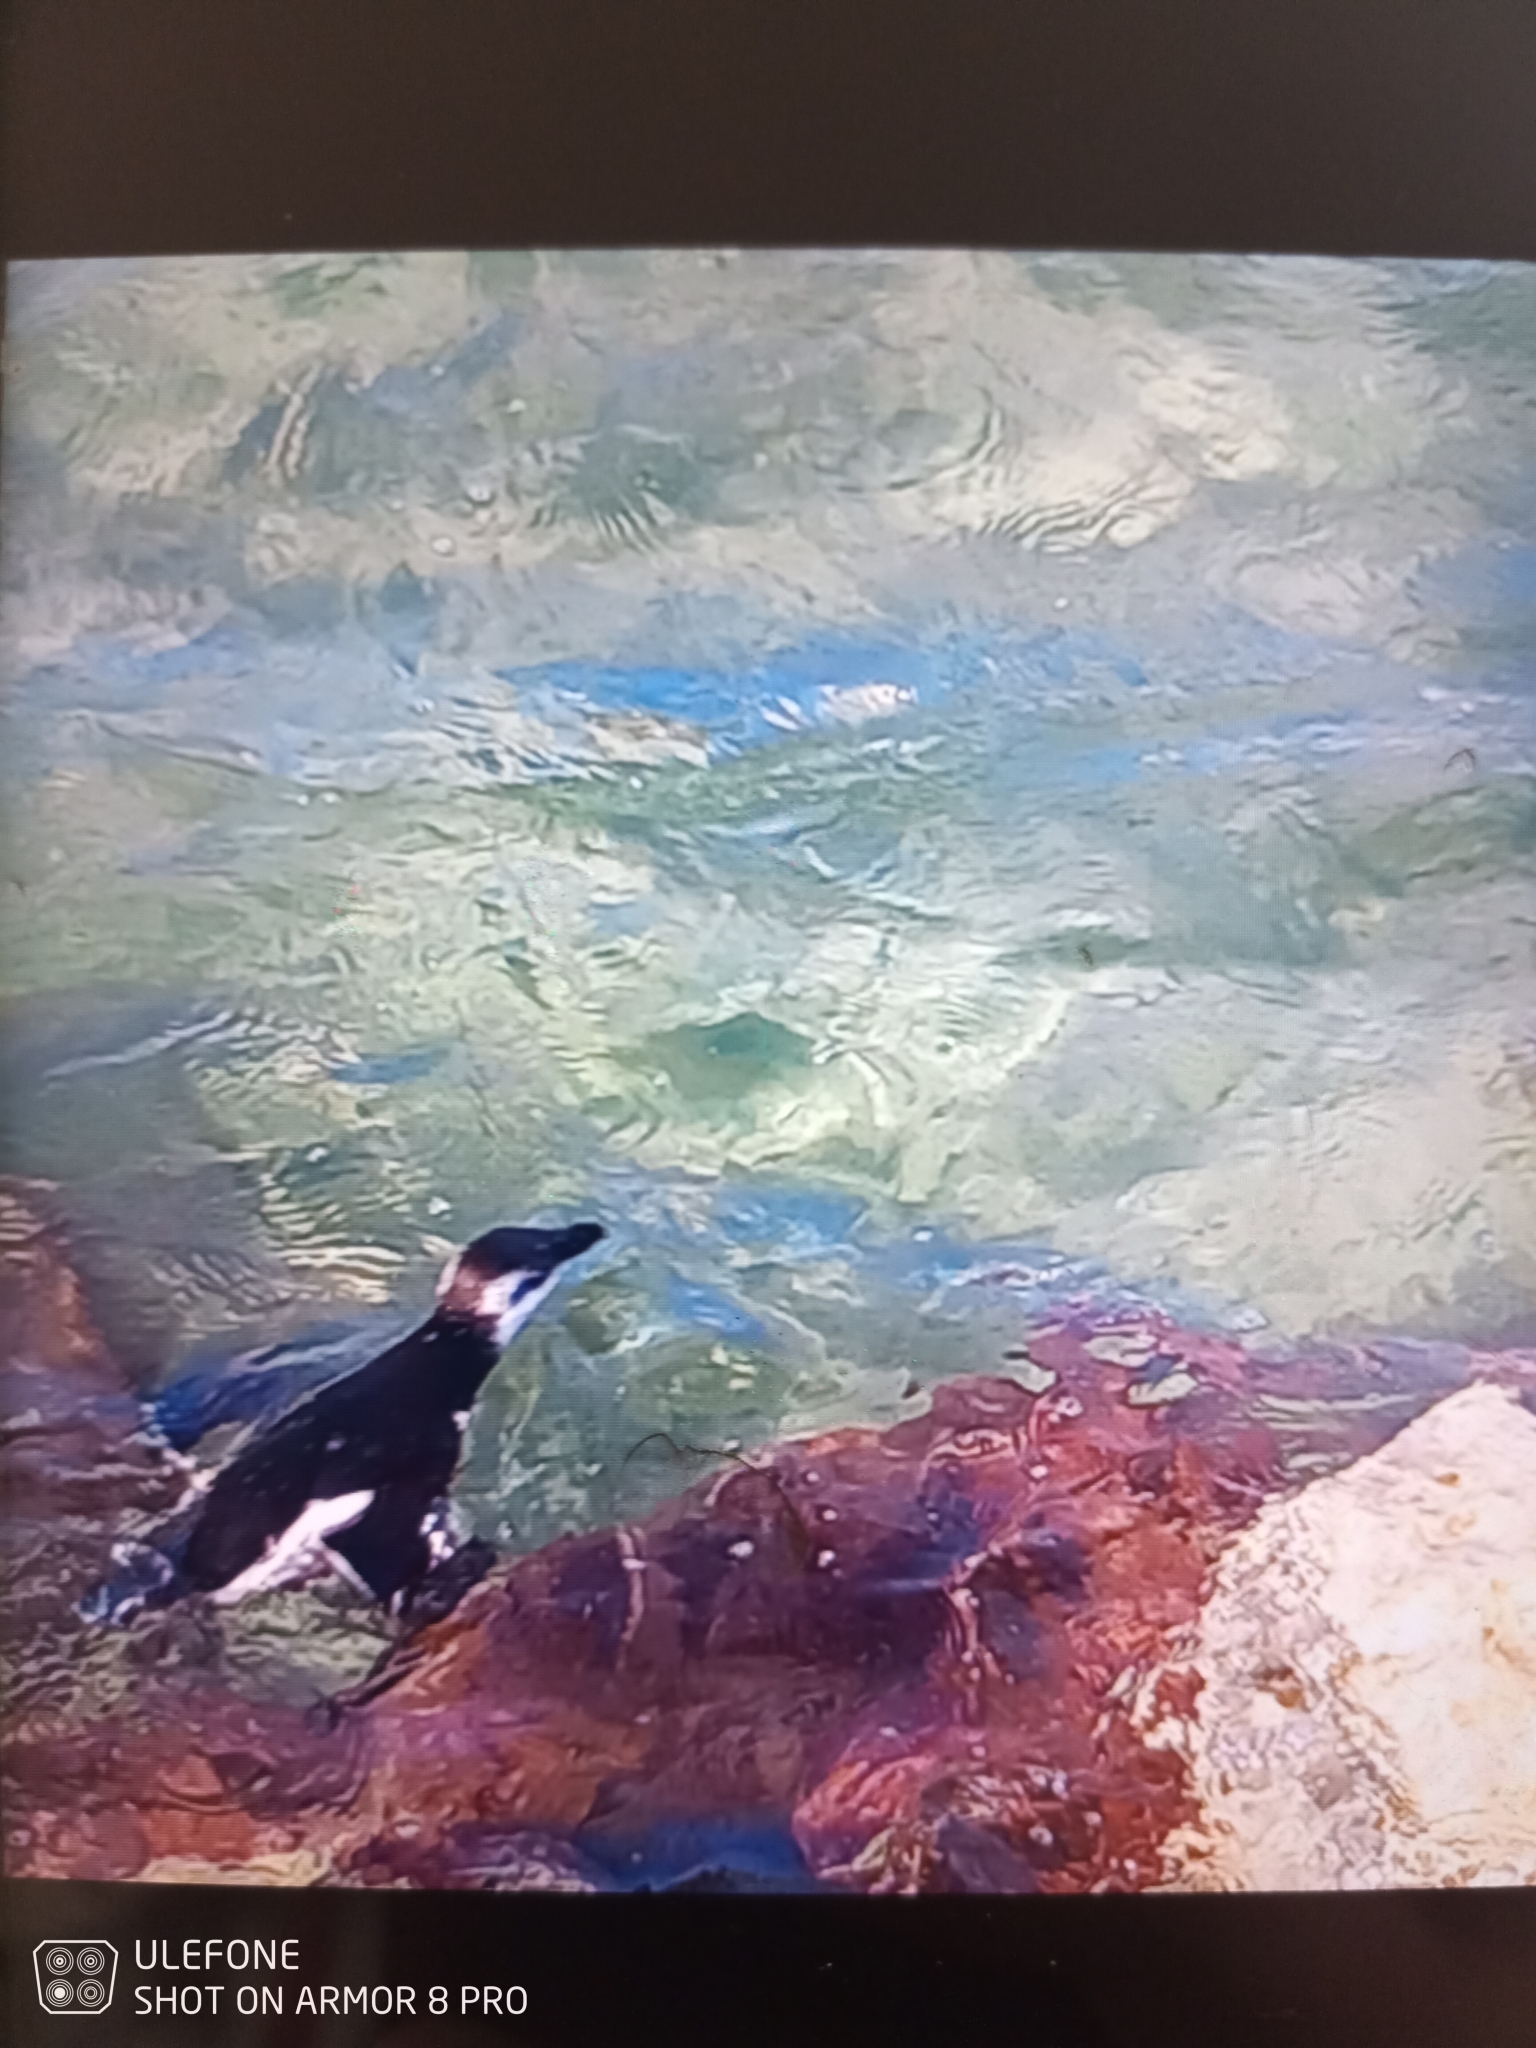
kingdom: Animalia
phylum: Chordata
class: Aves
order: Charadriiformes
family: Alcidae
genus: Alca
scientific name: Alca torda
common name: Razorbill
